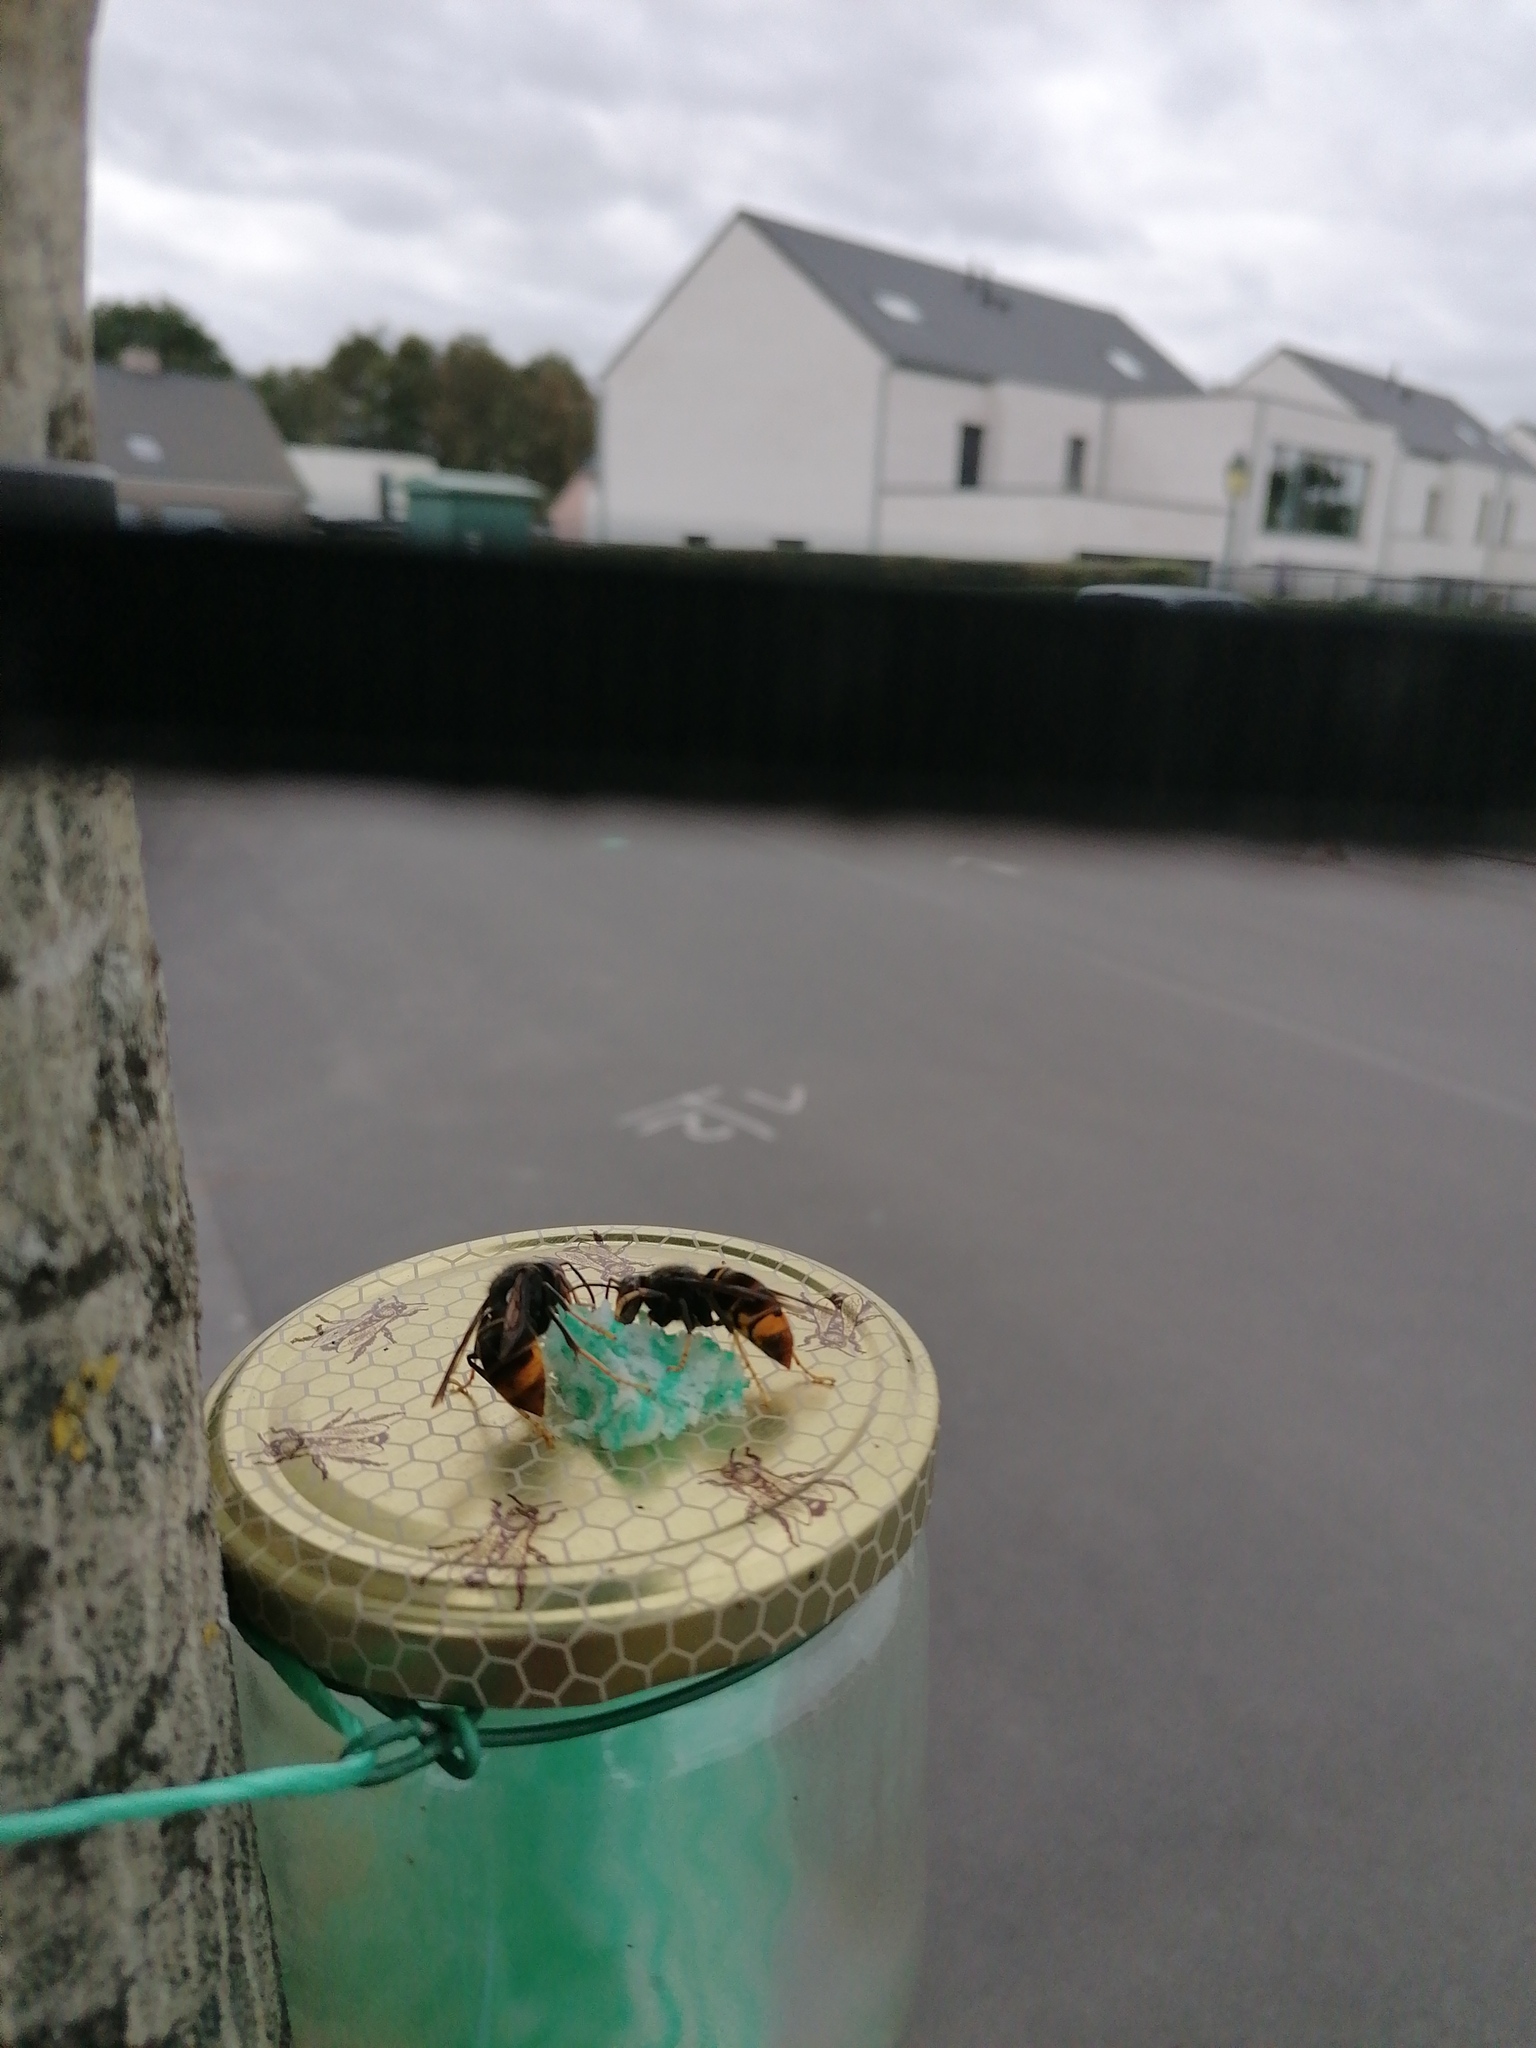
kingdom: Animalia
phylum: Arthropoda
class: Insecta
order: Hymenoptera
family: Vespidae
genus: Vespa
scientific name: Vespa velutina
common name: Asian hornet
